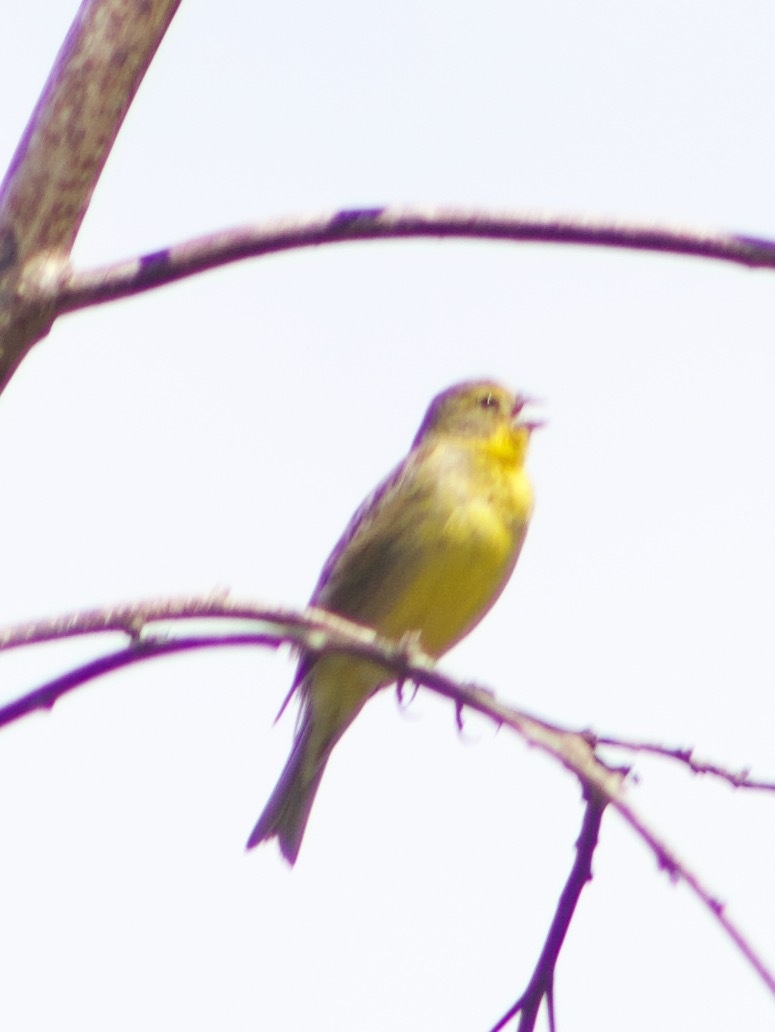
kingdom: Animalia
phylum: Chordata
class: Aves
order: Passeriformes
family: Thraupidae
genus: Sicalis
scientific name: Sicalis luteola
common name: Grassland yellow-finch
